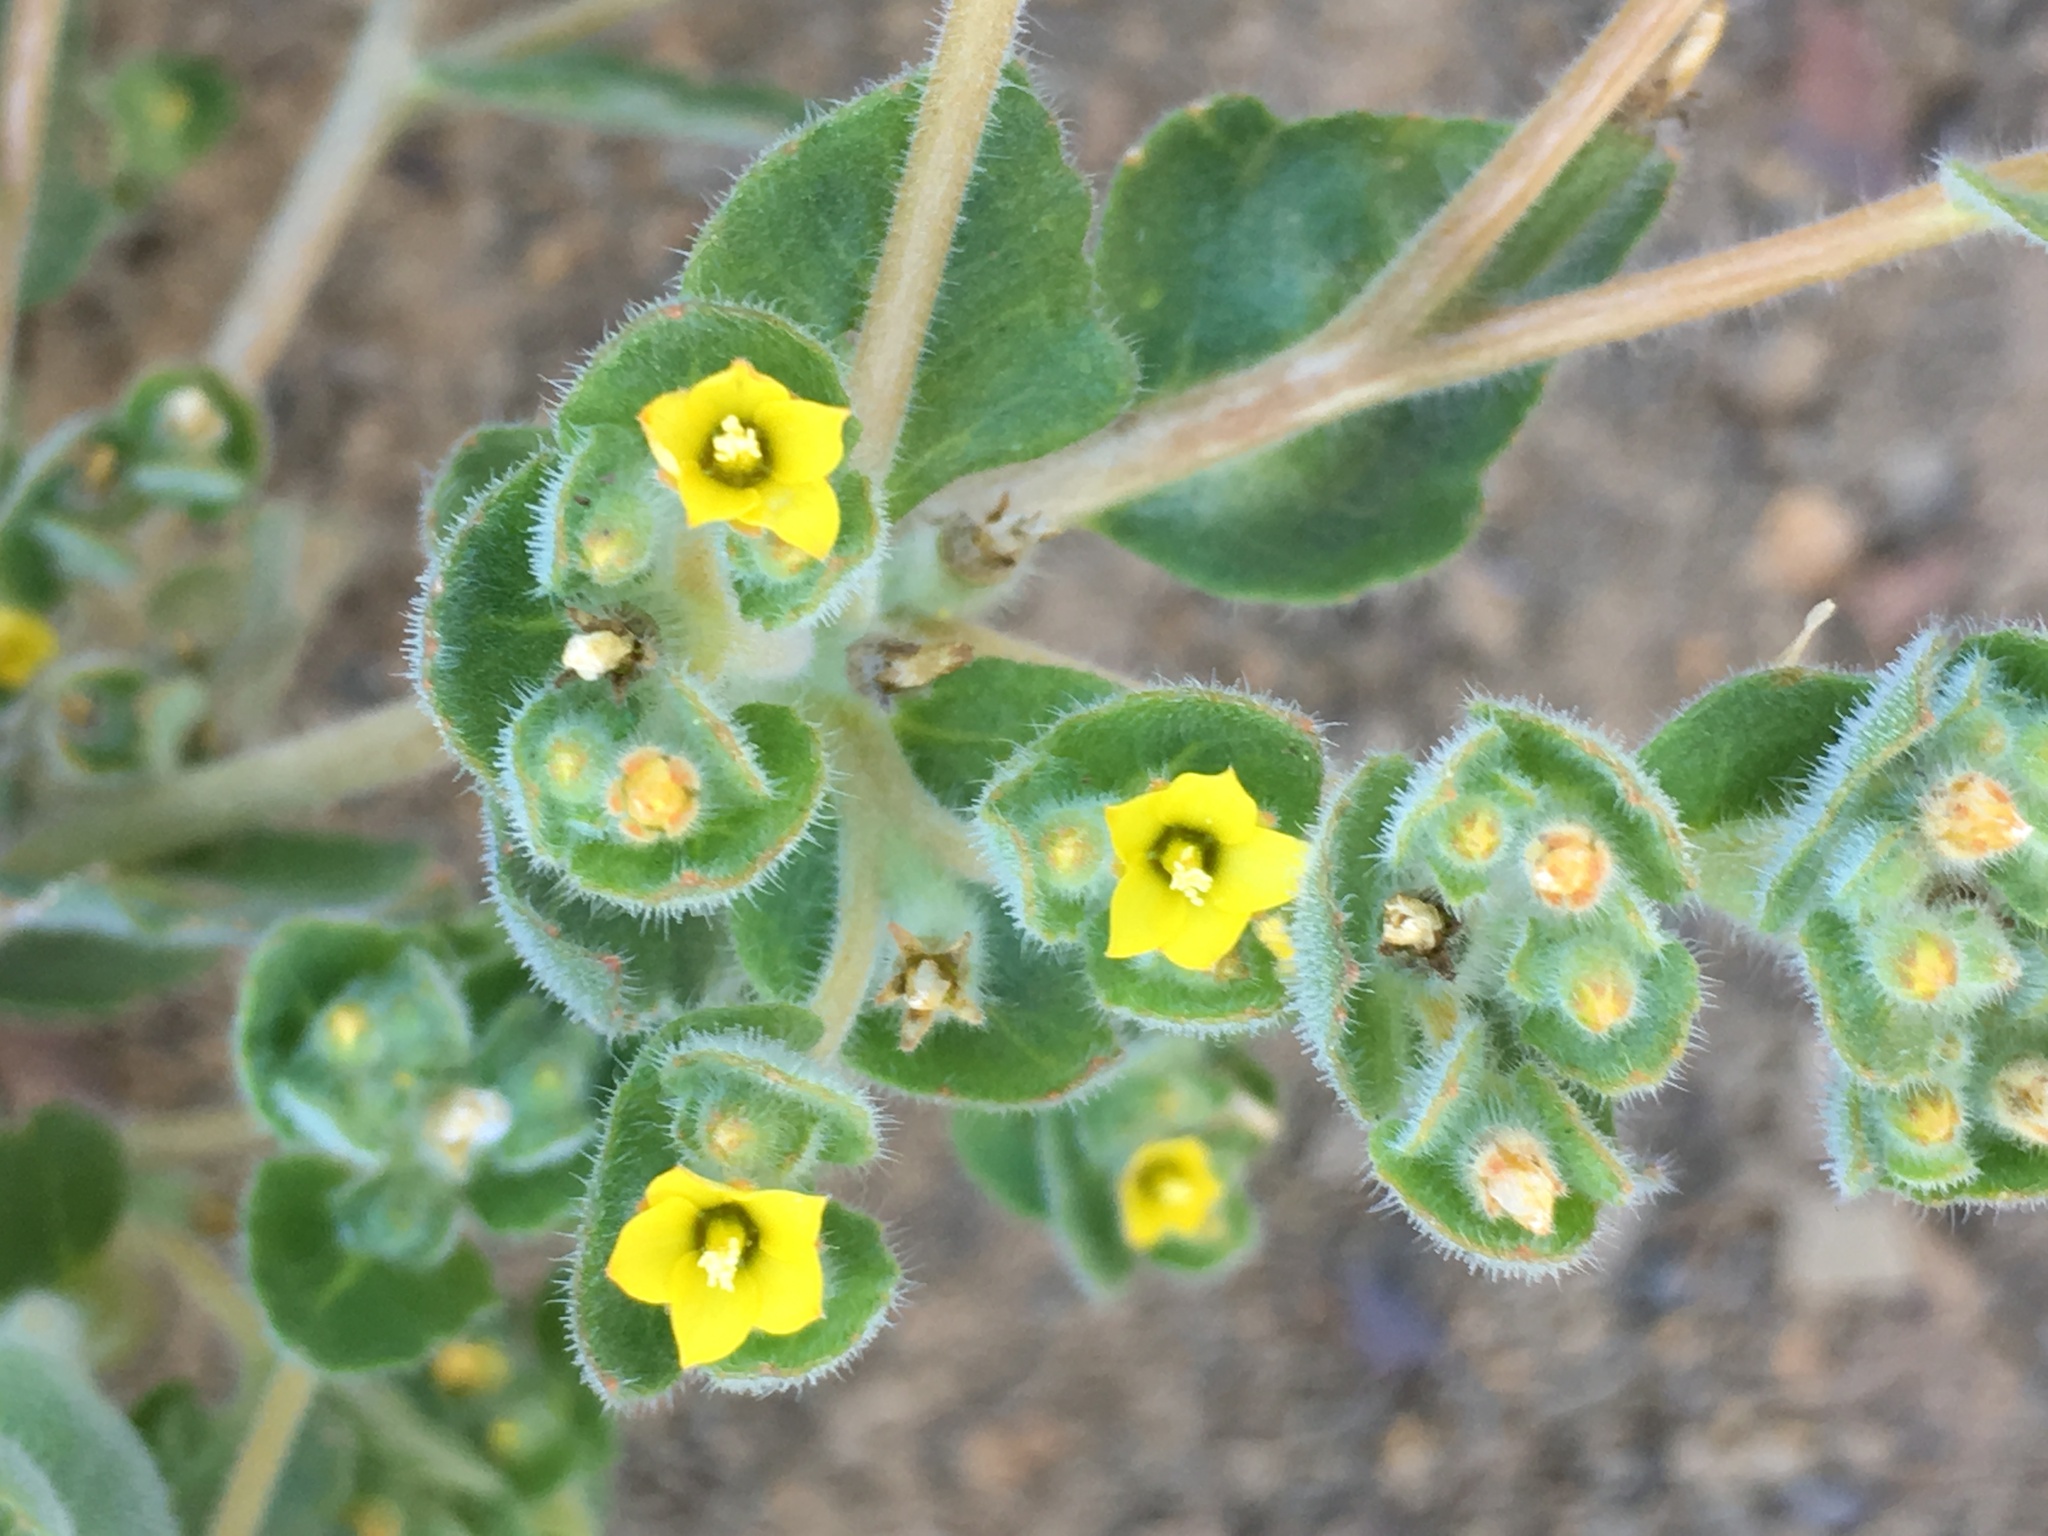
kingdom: Plantae
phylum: Tracheophyta
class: Magnoliopsida
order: Cornales
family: Loasaceae
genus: Mentzelia
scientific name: Mentzelia micrantha
